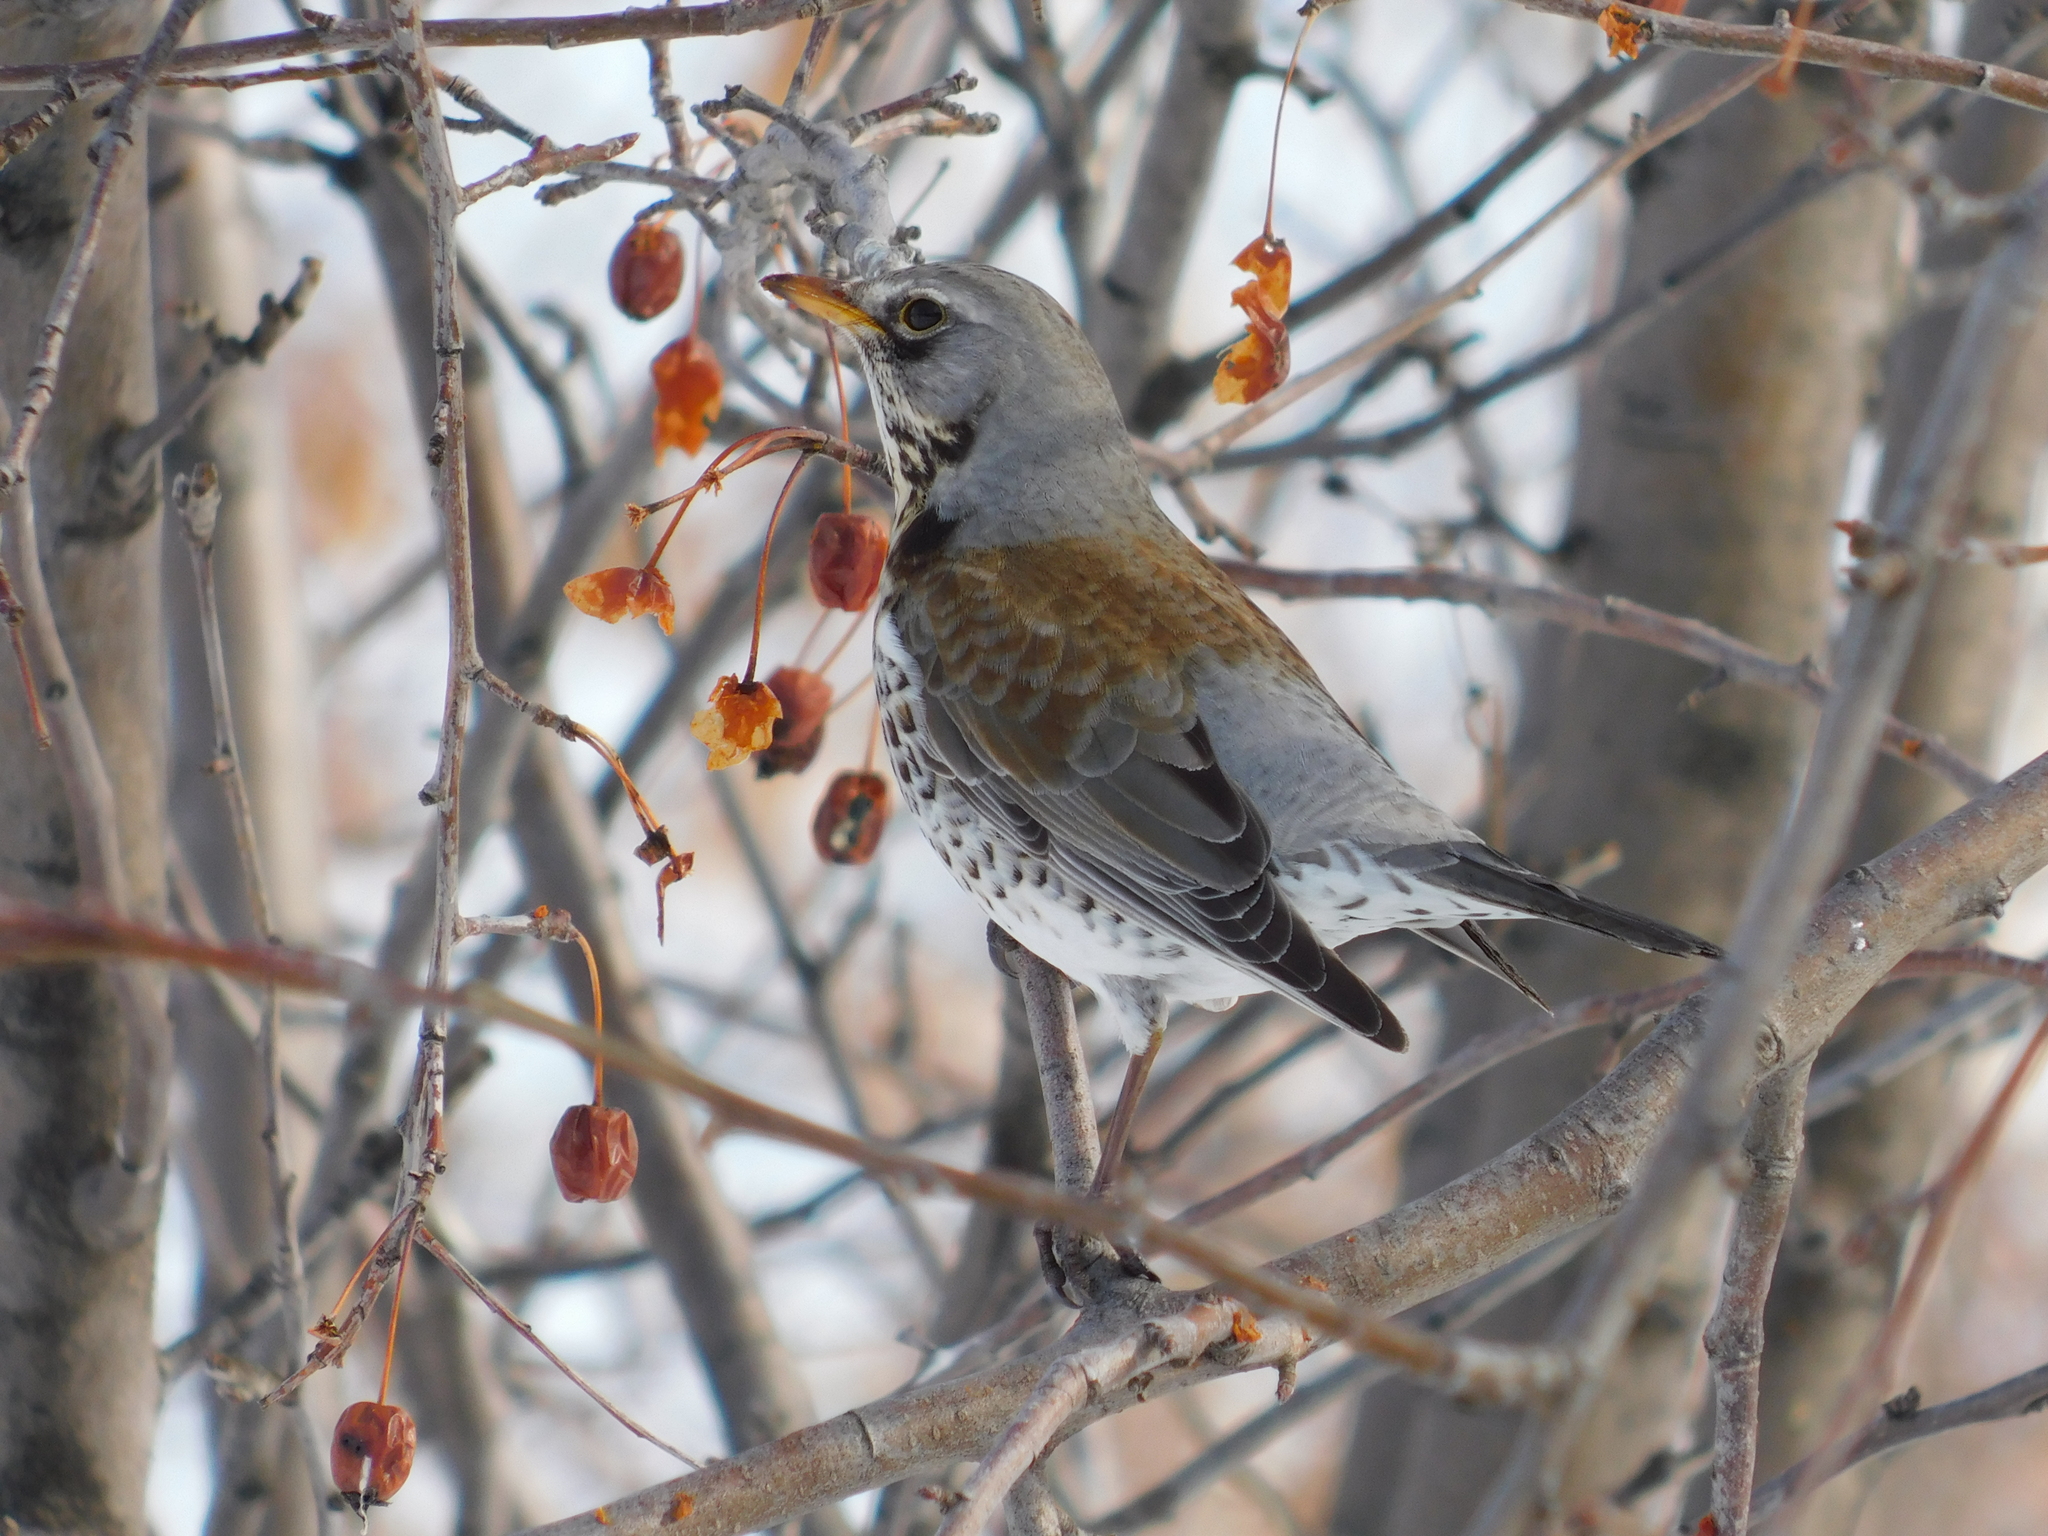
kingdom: Animalia
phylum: Chordata
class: Aves
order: Passeriformes
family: Turdidae
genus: Turdus
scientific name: Turdus pilaris
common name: Fieldfare
